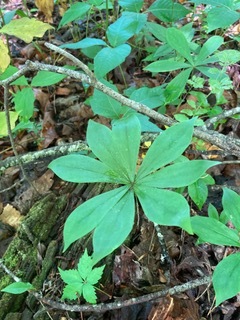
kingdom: Plantae
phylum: Tracheophyta
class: Liliopsida
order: Liliales
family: Liliaceae
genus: Medeola
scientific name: Medeola virginiana
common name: Indian cucumber-root
